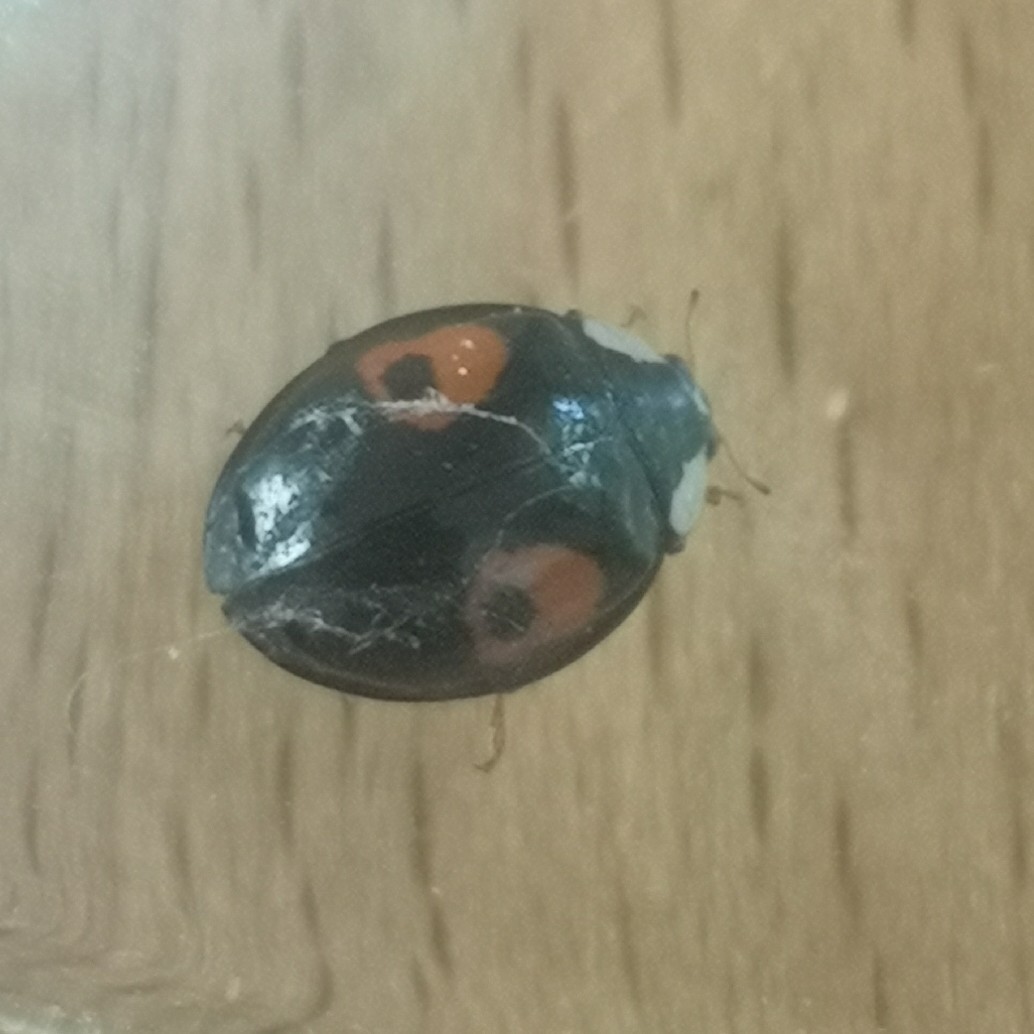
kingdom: Animalia
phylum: Arthropoda
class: Insecta
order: Coleoptera
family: Coccinellidae
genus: Harmonia
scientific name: Harmonia axyridis
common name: Harlequin ladybird
